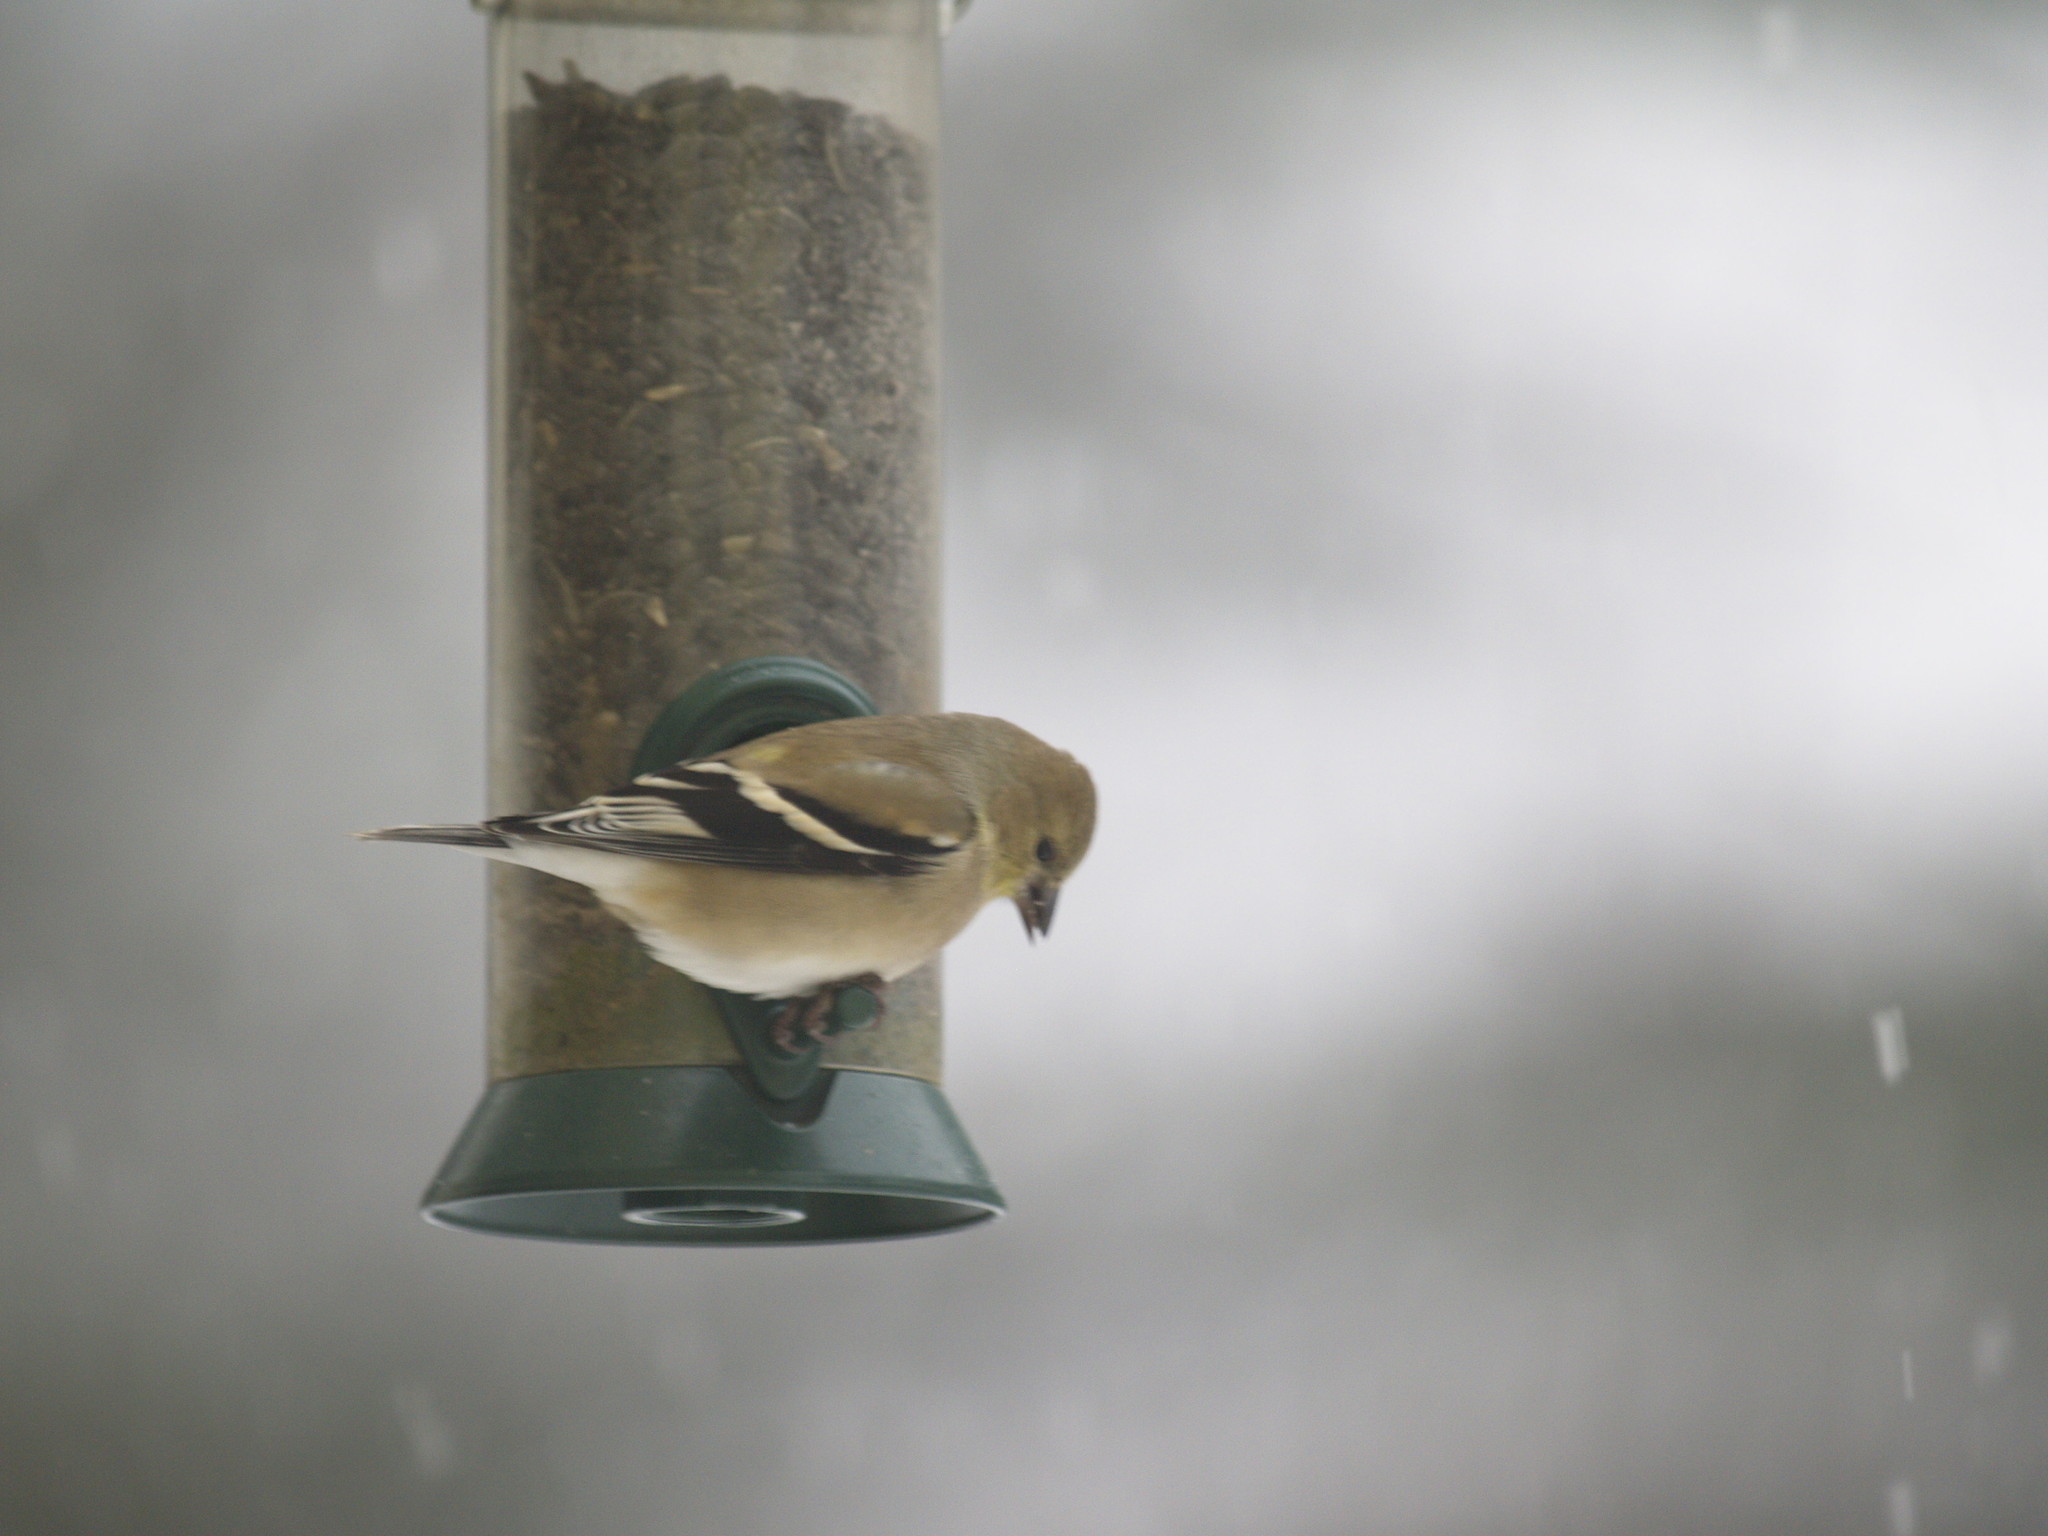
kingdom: Animalia
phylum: Chordata
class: Aves
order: Passeriformes
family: Fringillidae
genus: Spinus
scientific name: Spinus tristis
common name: American goldfinch
